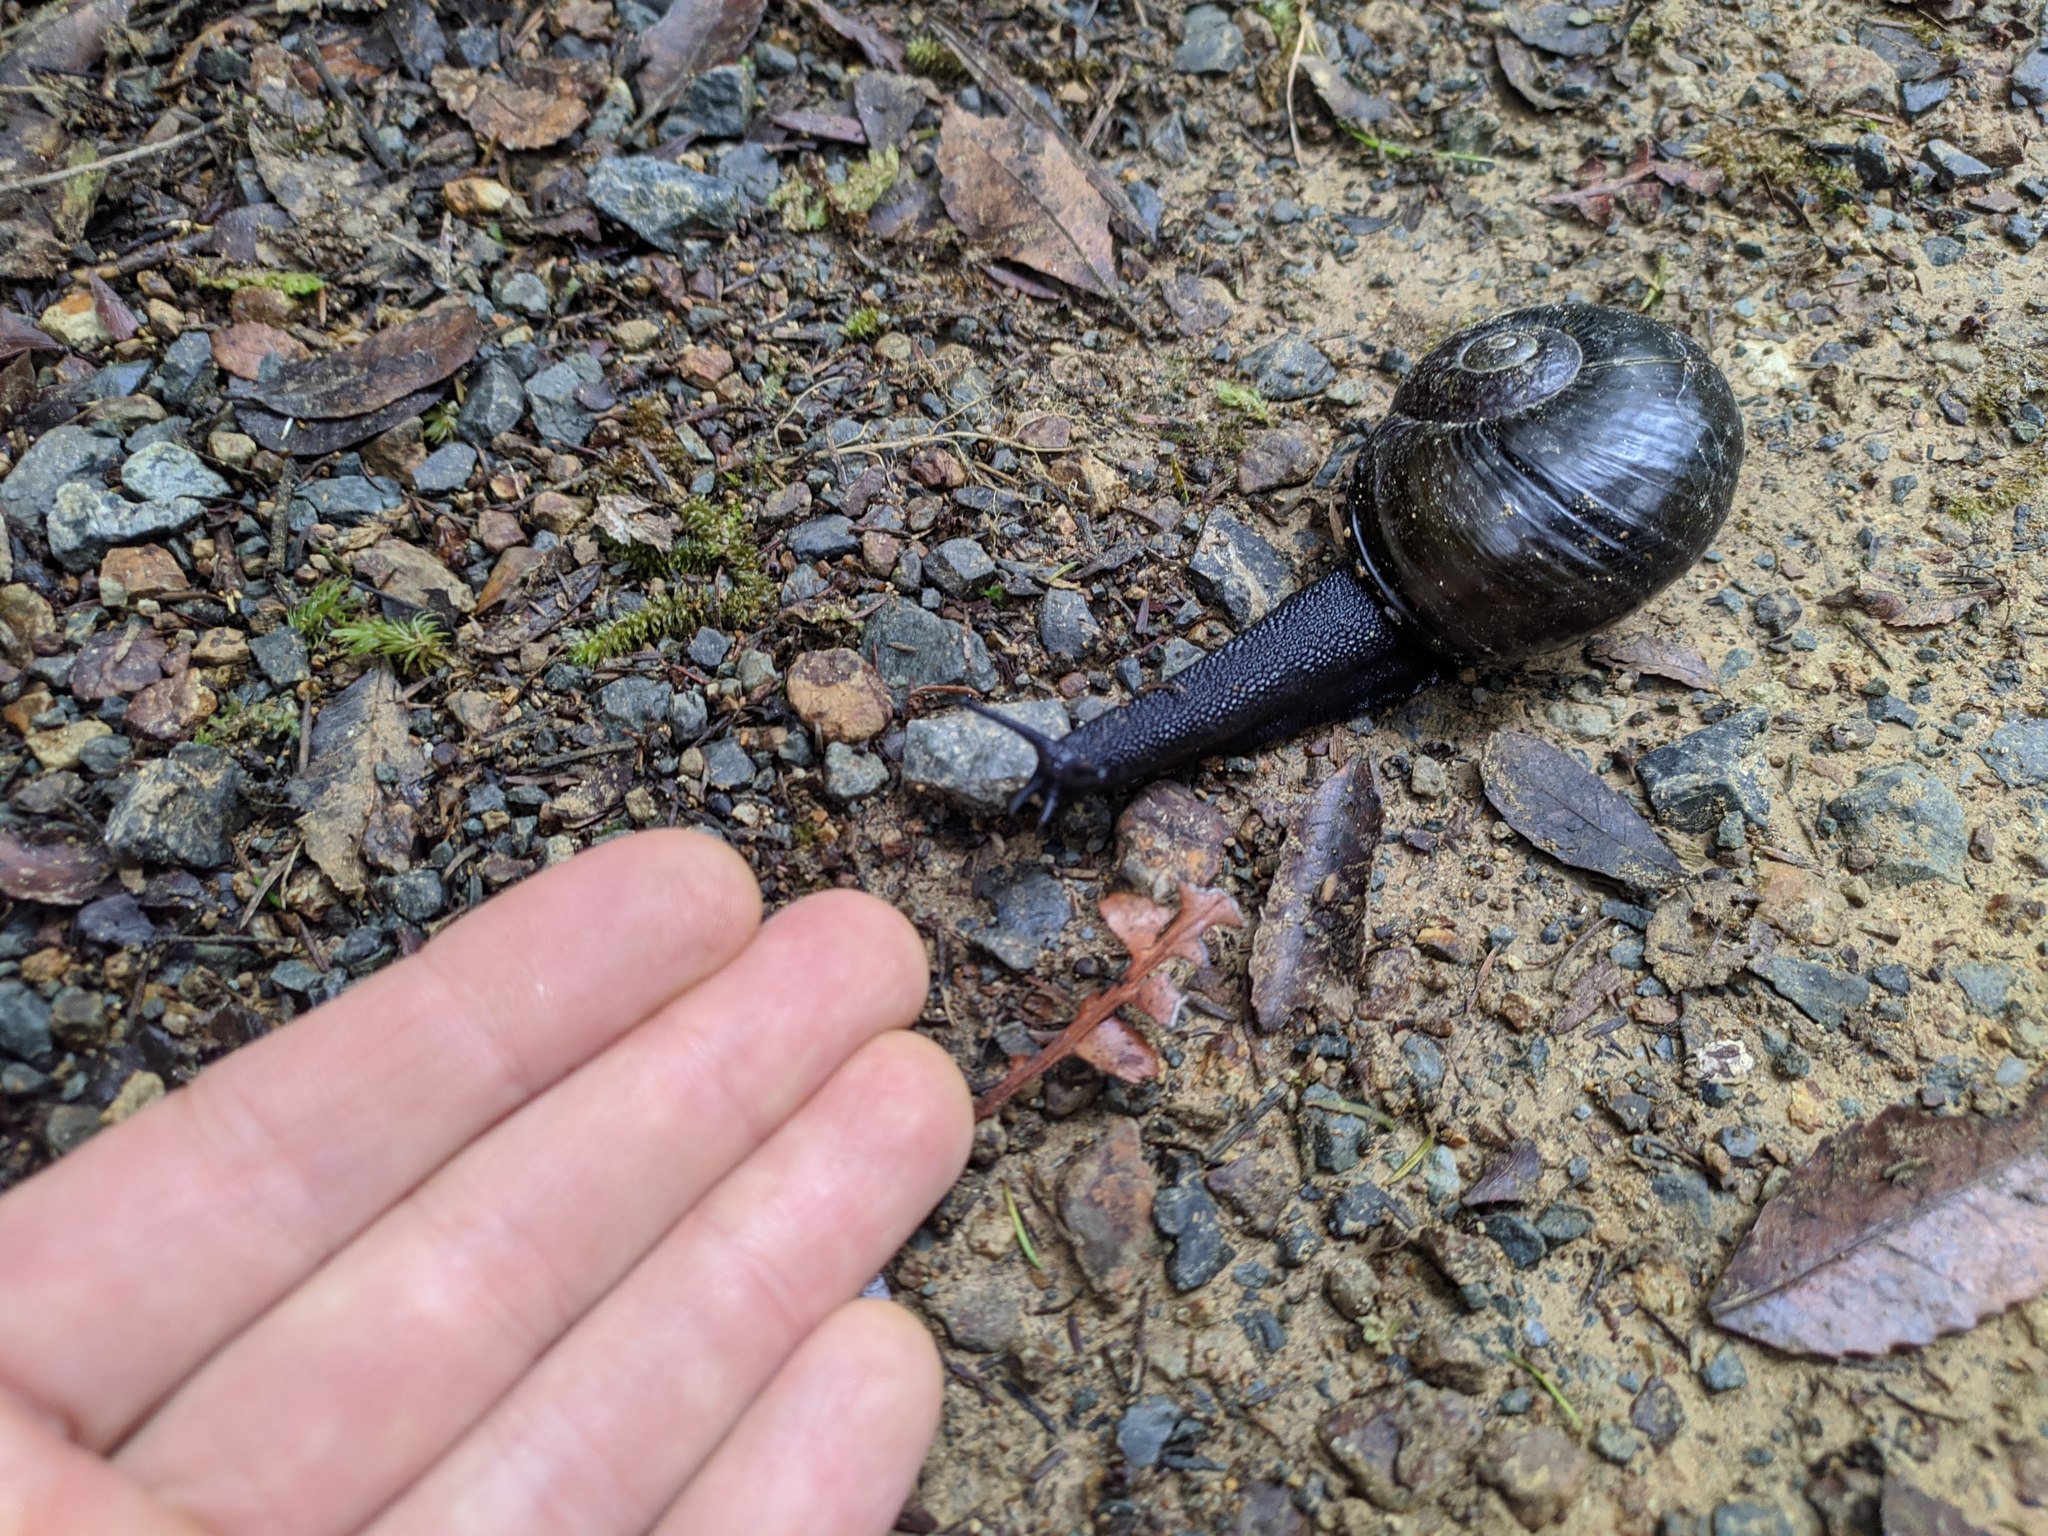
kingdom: Animalia
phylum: Mollusca
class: Gastropoda
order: Stylommatophora
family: Rhytididae
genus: Paryphanta
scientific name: Paryphanta busbyi
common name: Kauri snail
